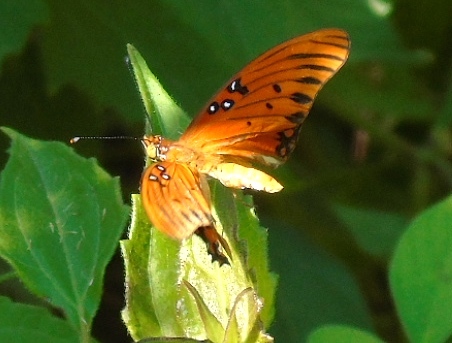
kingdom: Animalia
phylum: Arthropoda
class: Insecta
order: Lepidoptera
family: Nymphalidae
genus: Dione
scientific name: Dione vanillae
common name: Gulf fritillary
